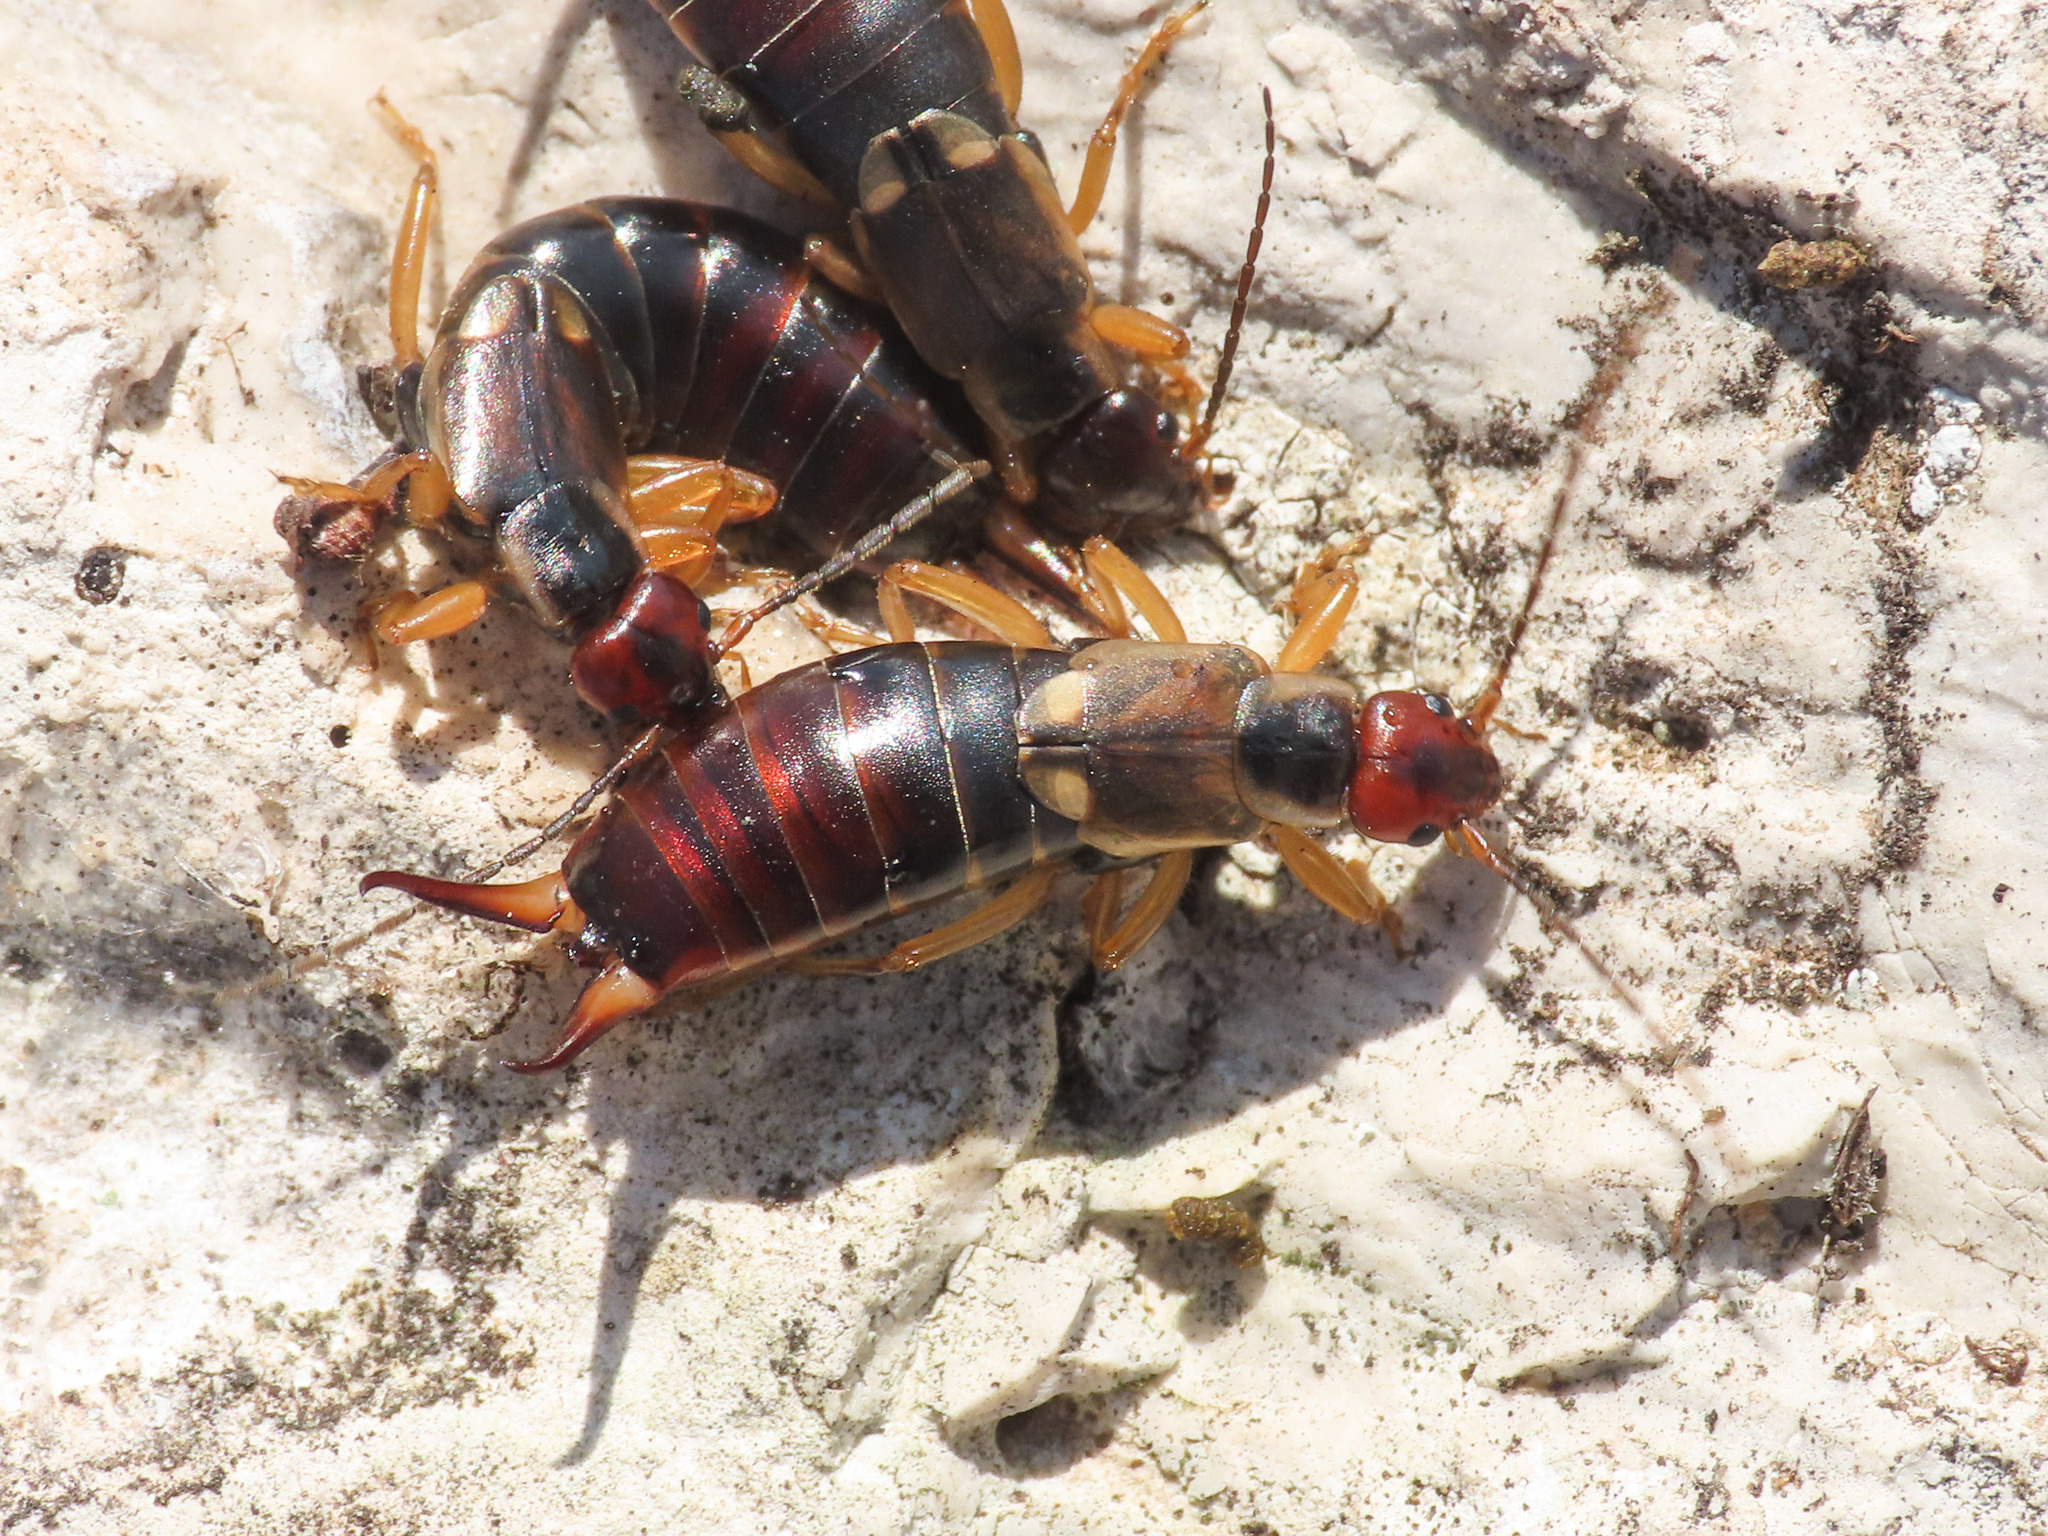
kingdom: Animalia
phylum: Arthropoda
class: Insecta
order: Dermaptera
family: Forficulidae
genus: Forficula
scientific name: Forficula
